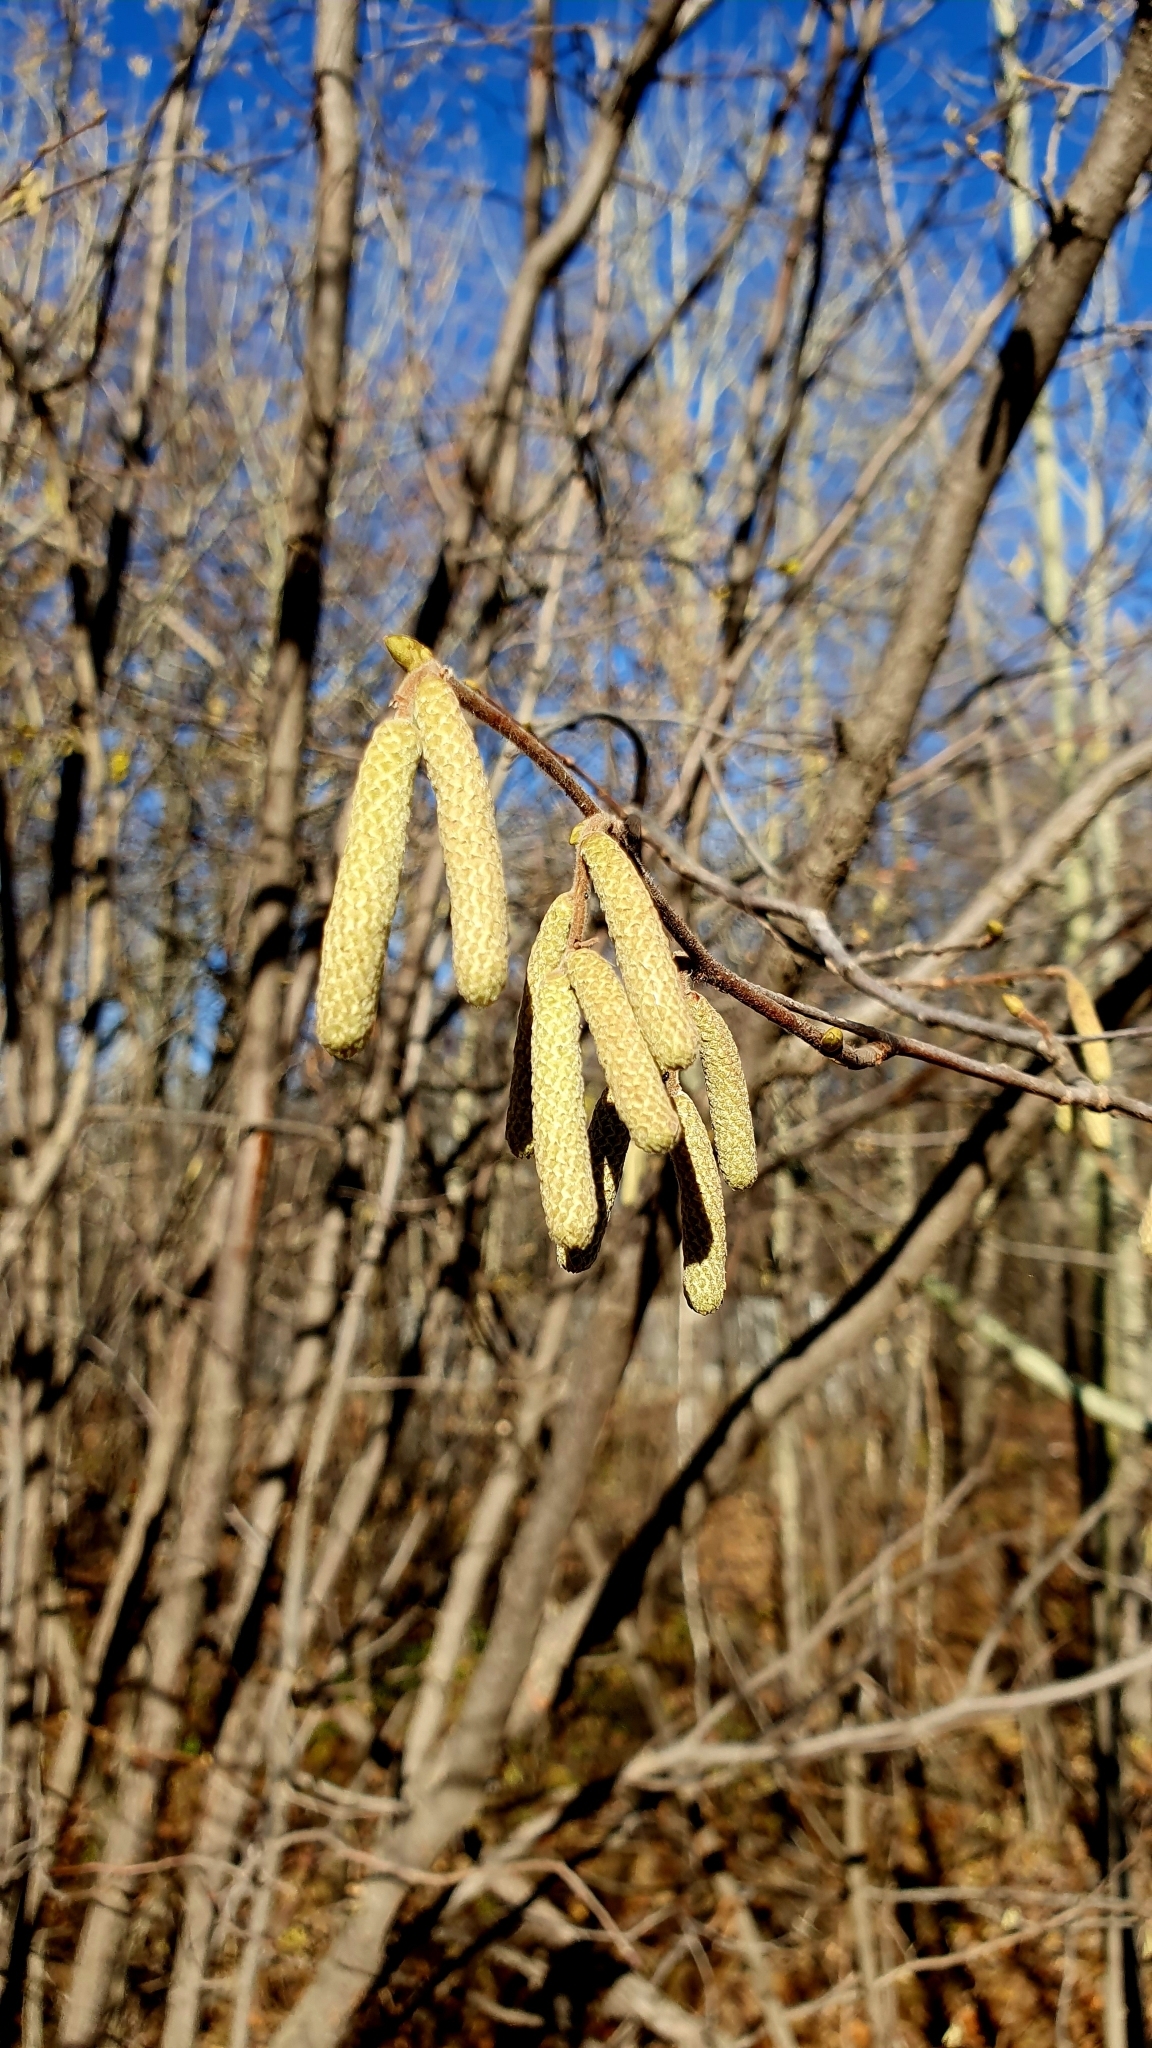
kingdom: Plantae
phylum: Tracheophyta
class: Magnoliopsida
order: Fagales
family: Betulaceae
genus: Corylus
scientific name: Corylus avellana
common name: European hazel
